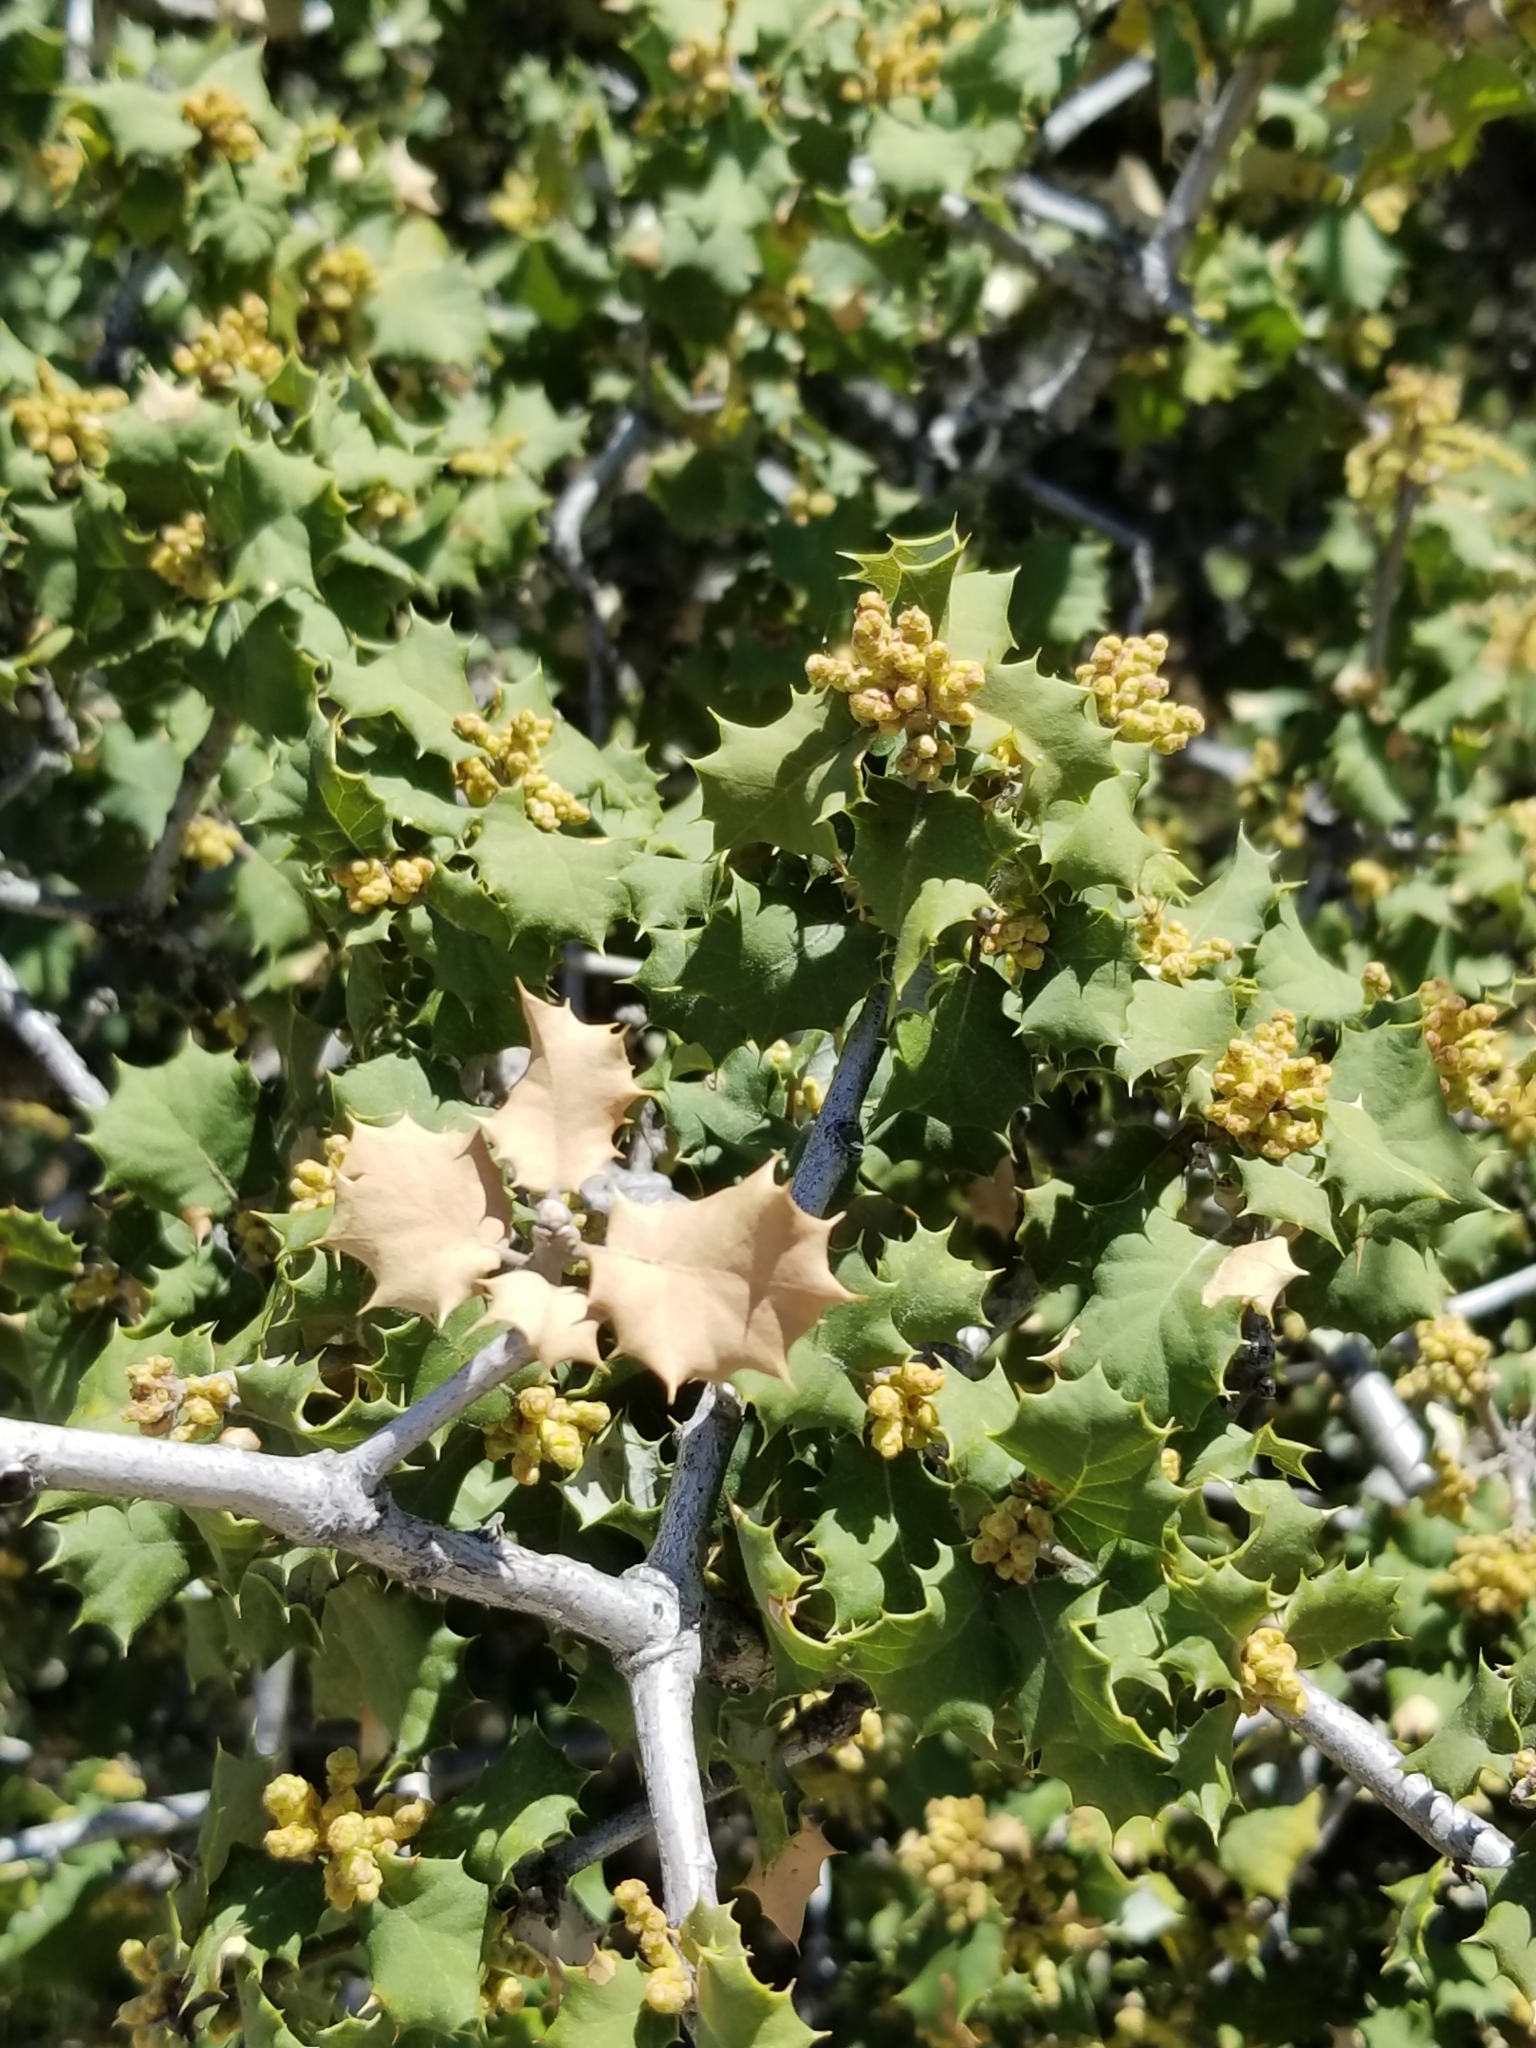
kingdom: Plantae
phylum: Tracheophyta
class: Magnoliopsida
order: Fagales
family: Fagaceae
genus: Quercus
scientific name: Quercus palmeri
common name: Dunn oak
